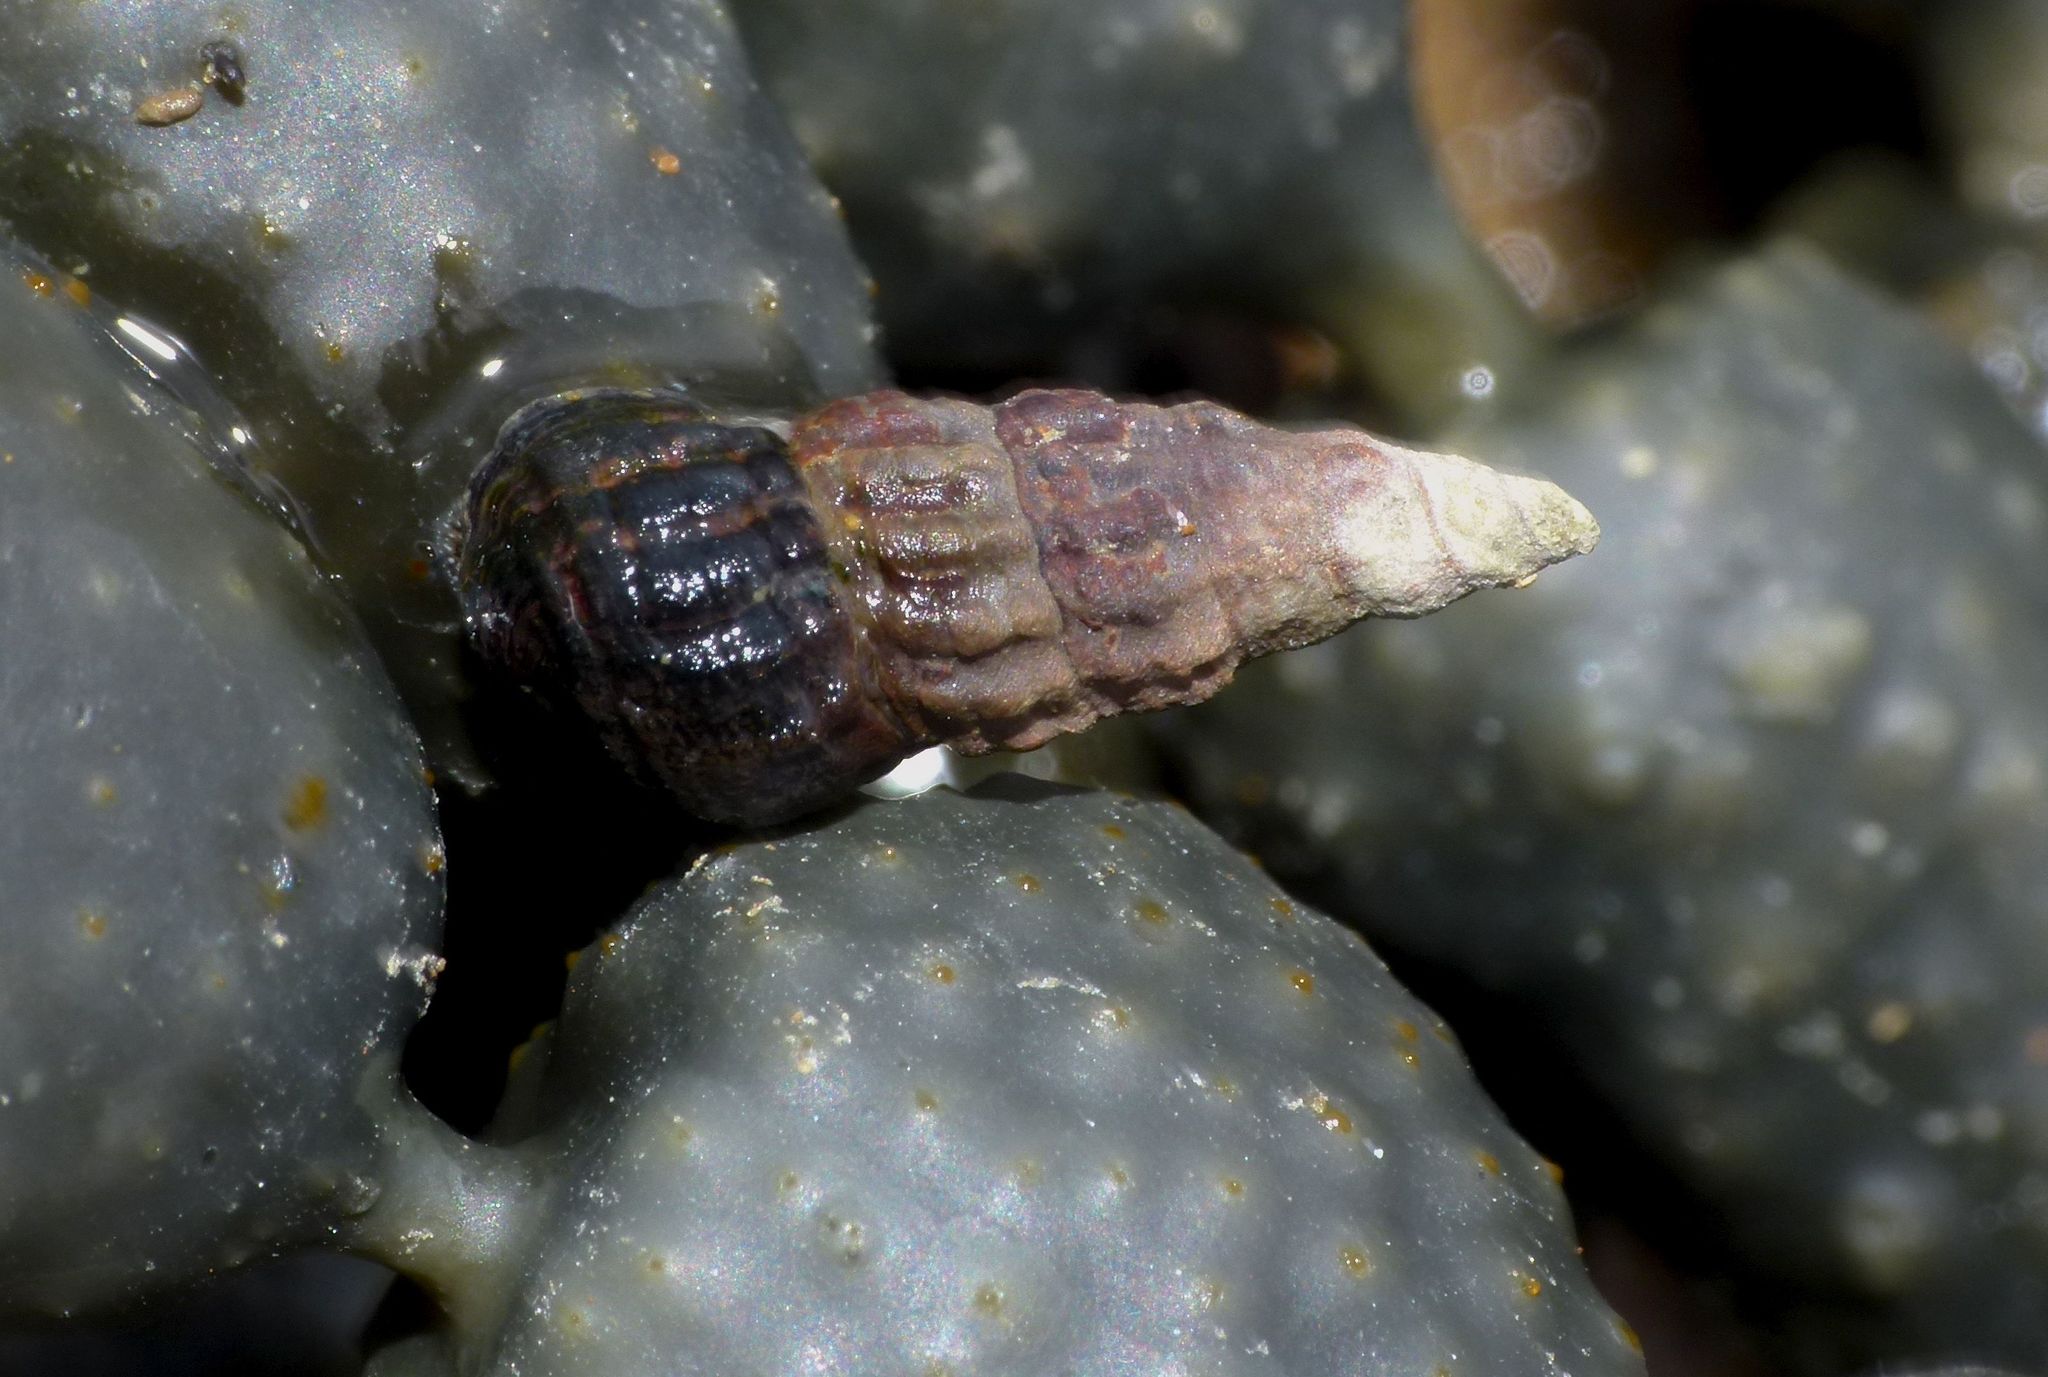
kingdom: Animalia
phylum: Mollusca
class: Gastropoda
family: Batillariidae
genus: Zeacumantus
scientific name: Zeacumantus subcarinatus
